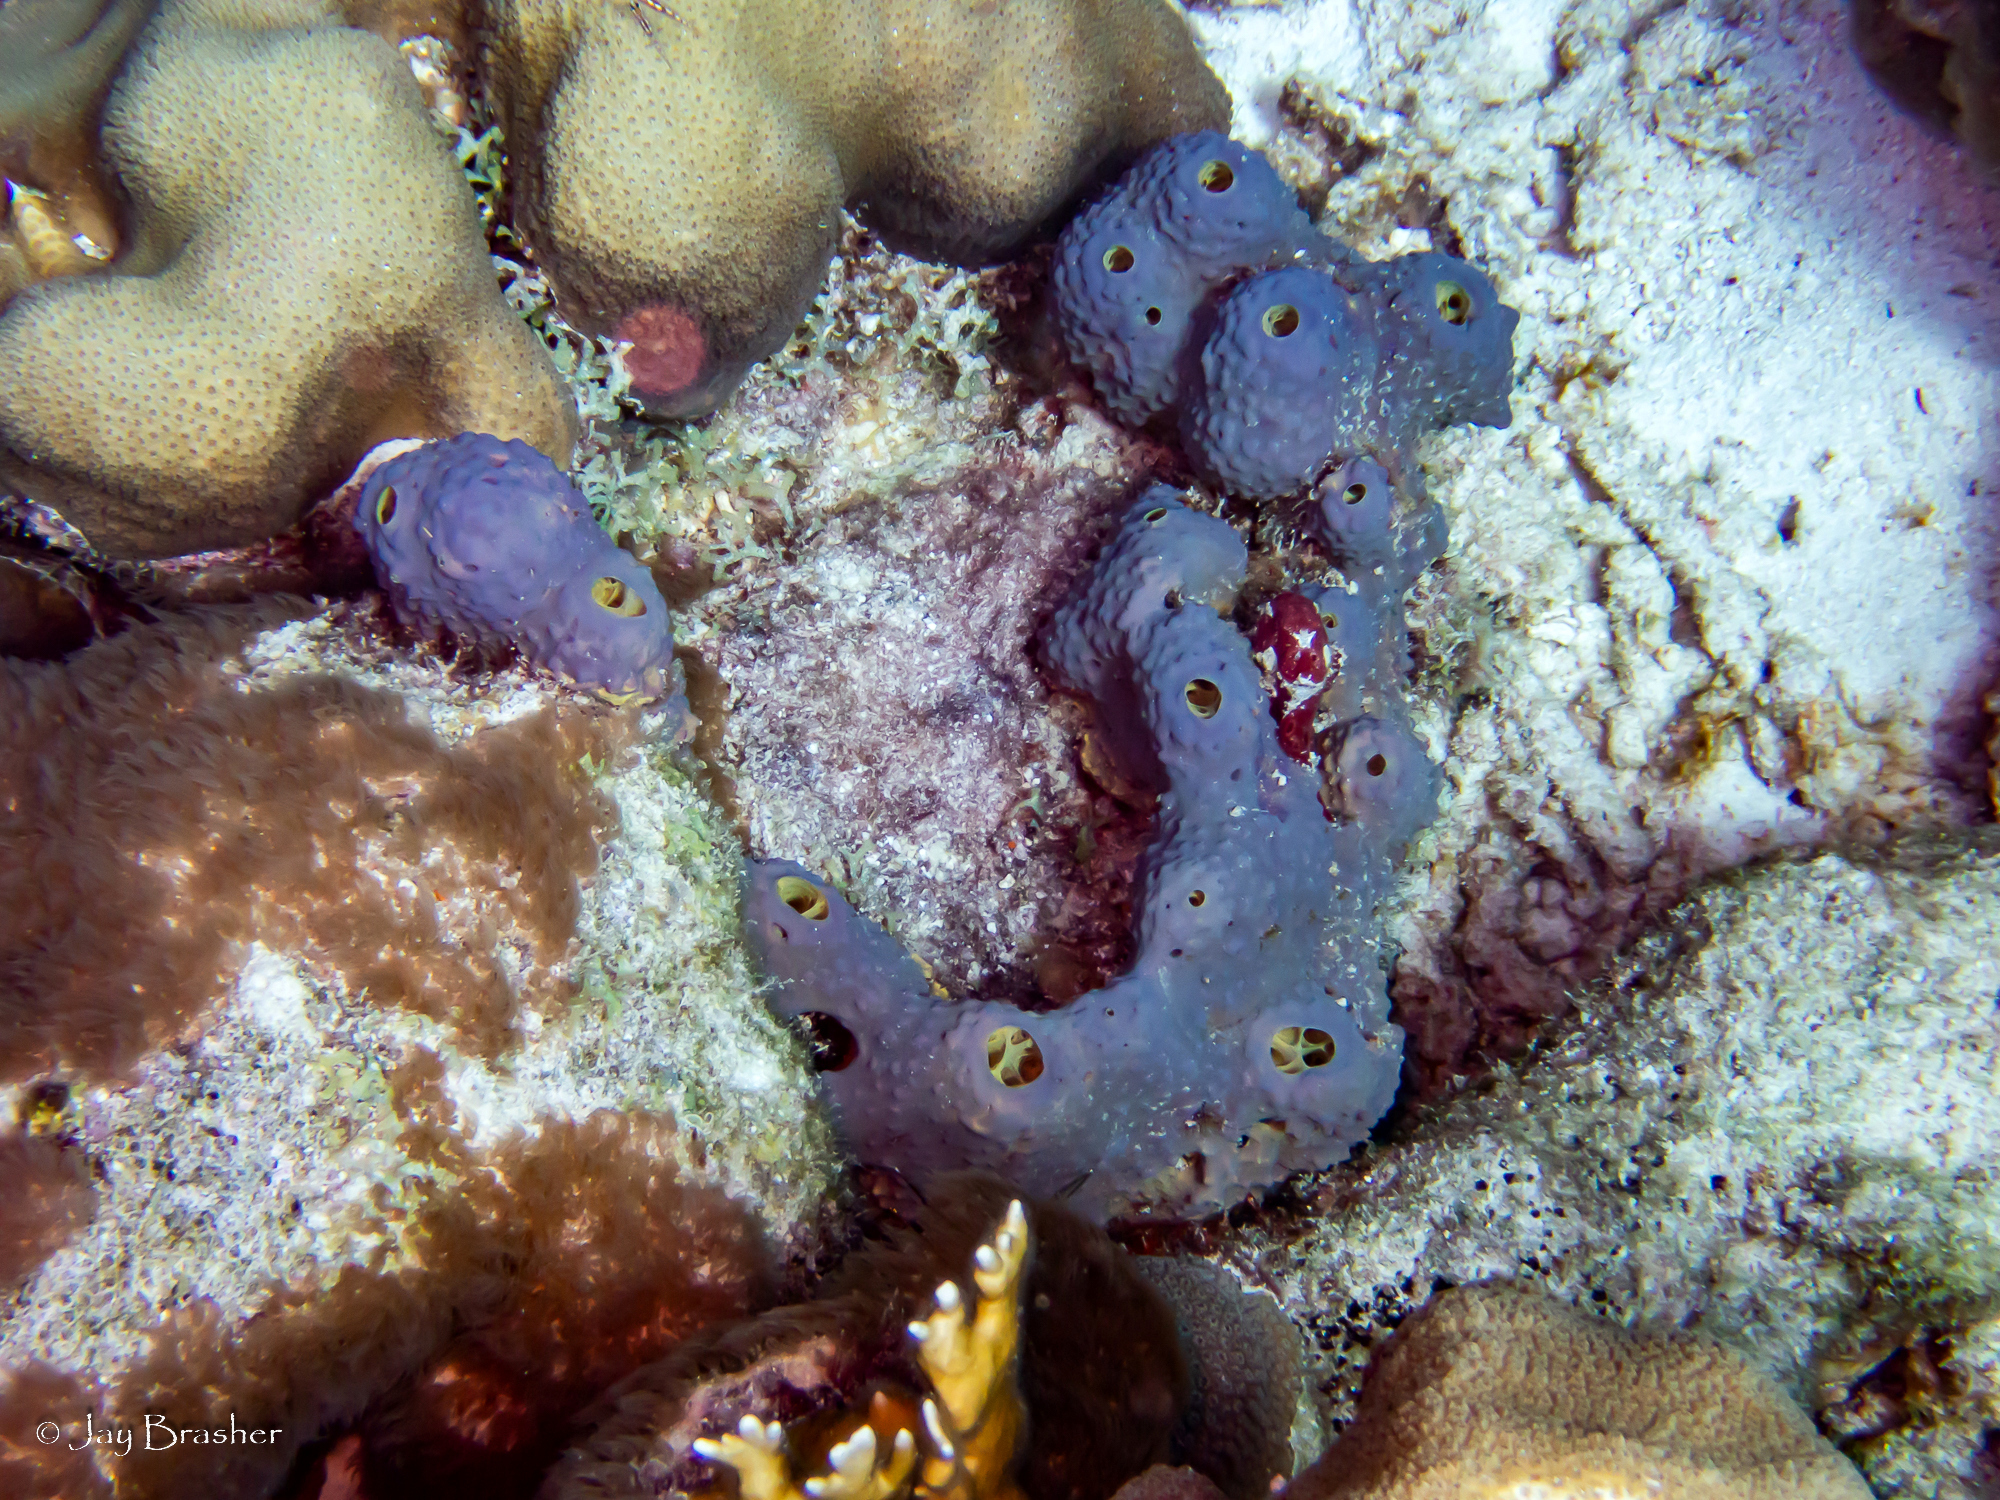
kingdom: Animalia
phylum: Cnidaria
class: Anthozoa
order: Scleralcyonacea
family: Erythropodiidae
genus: Erythropodium
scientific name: Erythropodium caribaeorum
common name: Encrusting gorgonian
